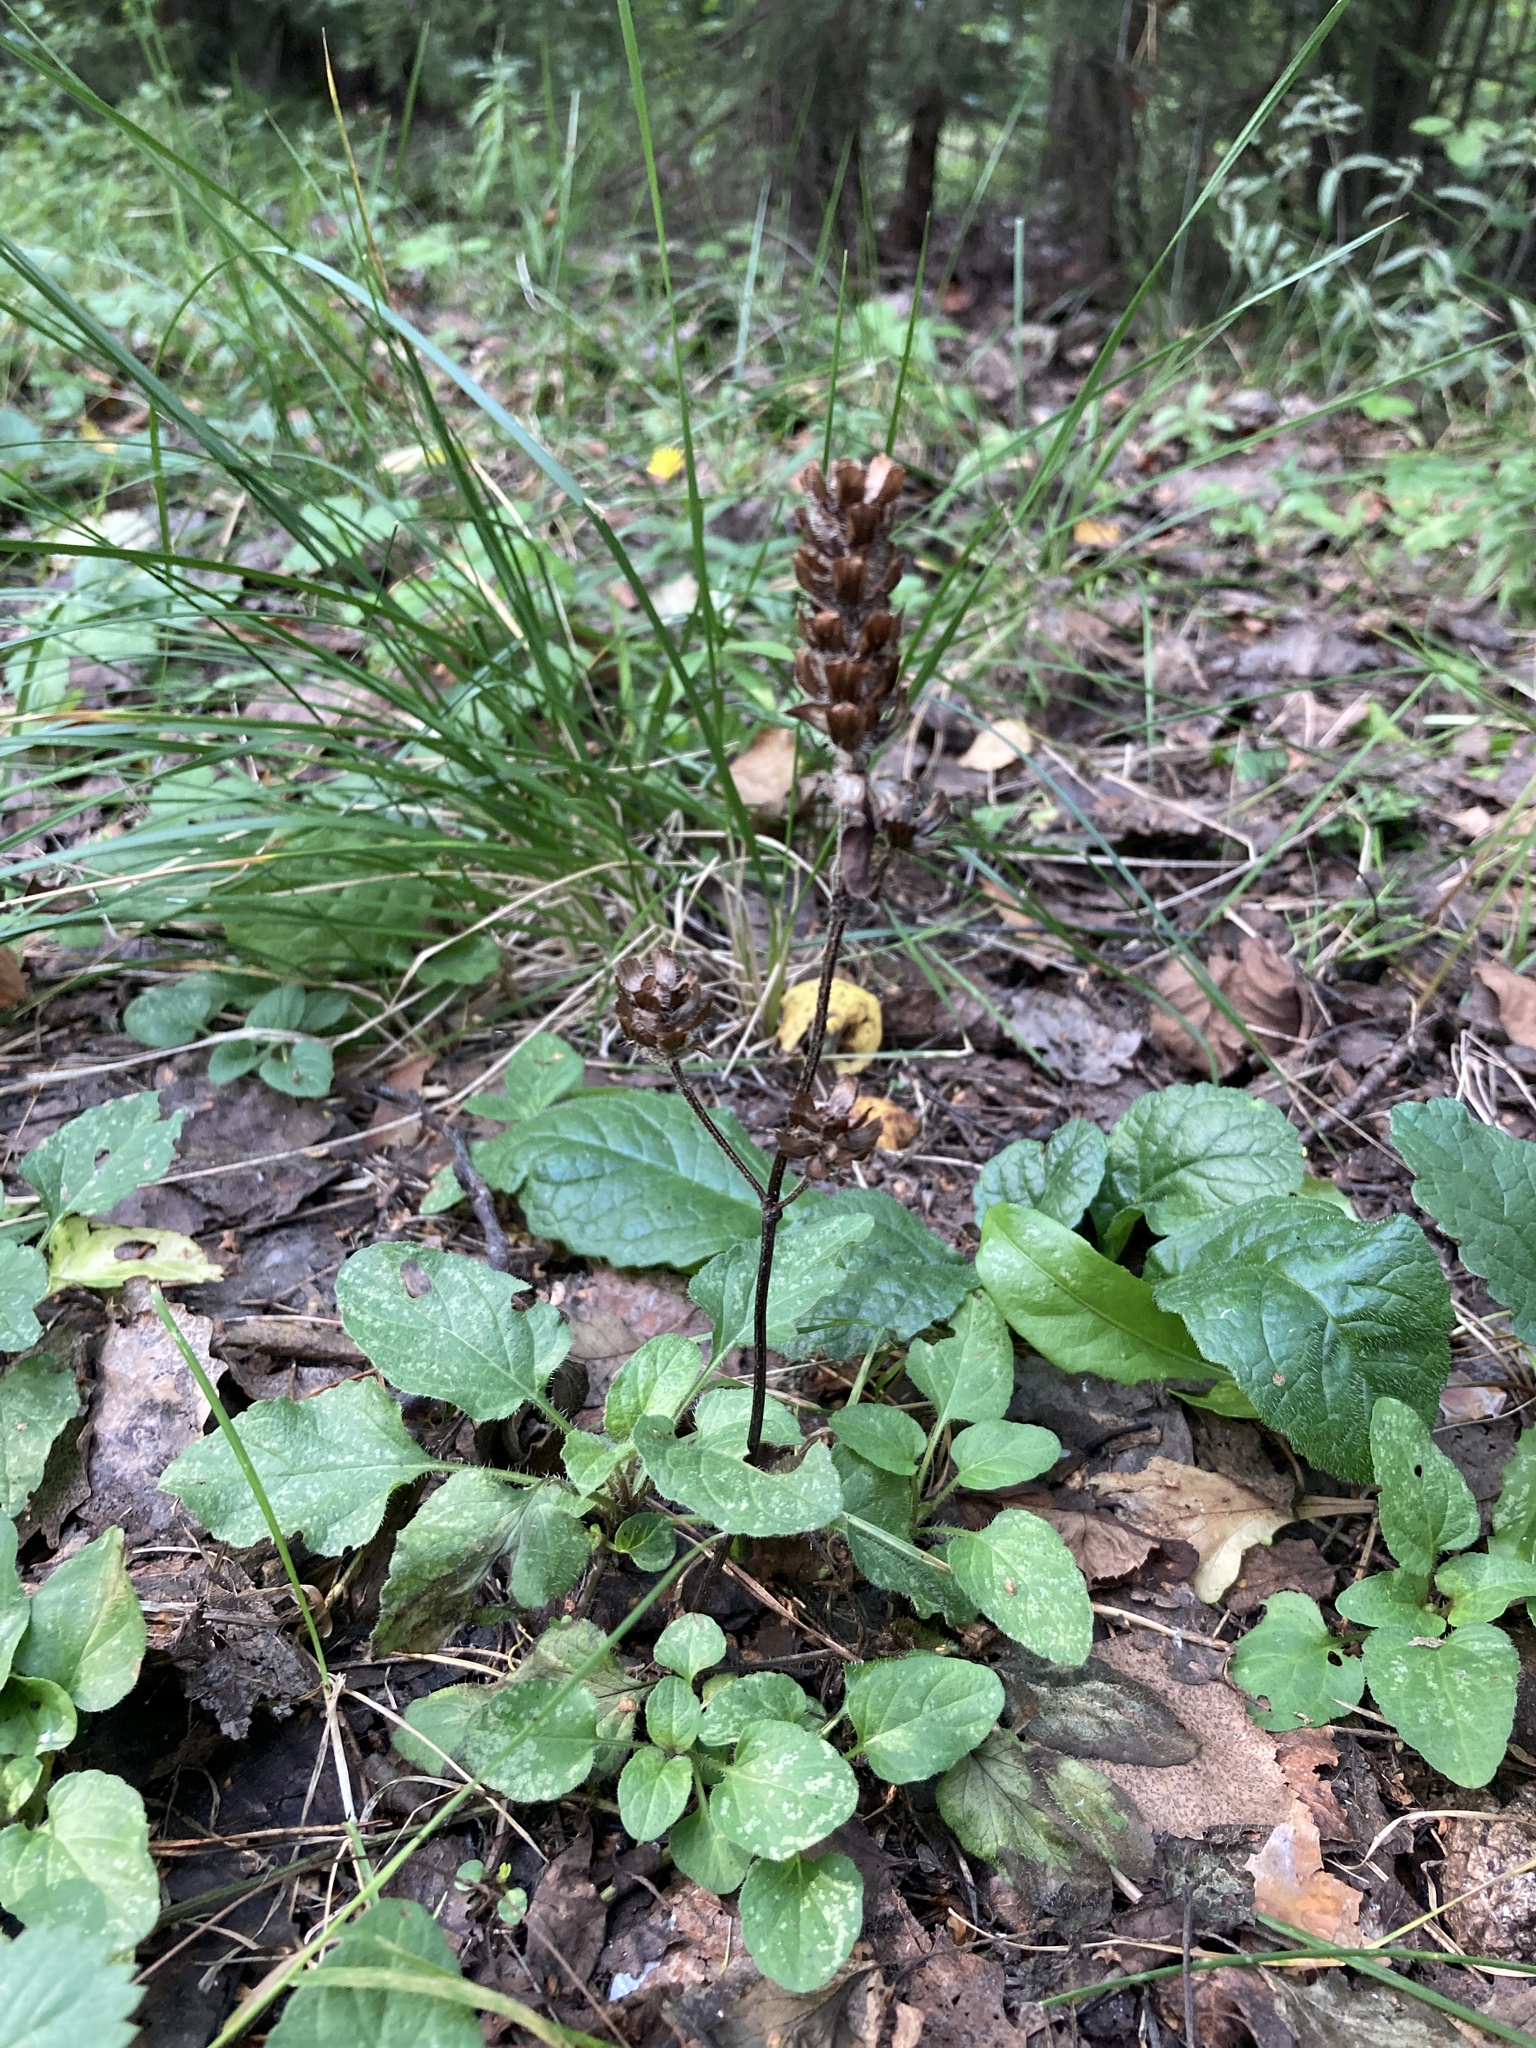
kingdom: Plantae
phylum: Tracheophyta
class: Magnoliopsida
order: Lamiales
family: Lamiaceae
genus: Prunella
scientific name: Prunella vulgaris
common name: Heal-all
